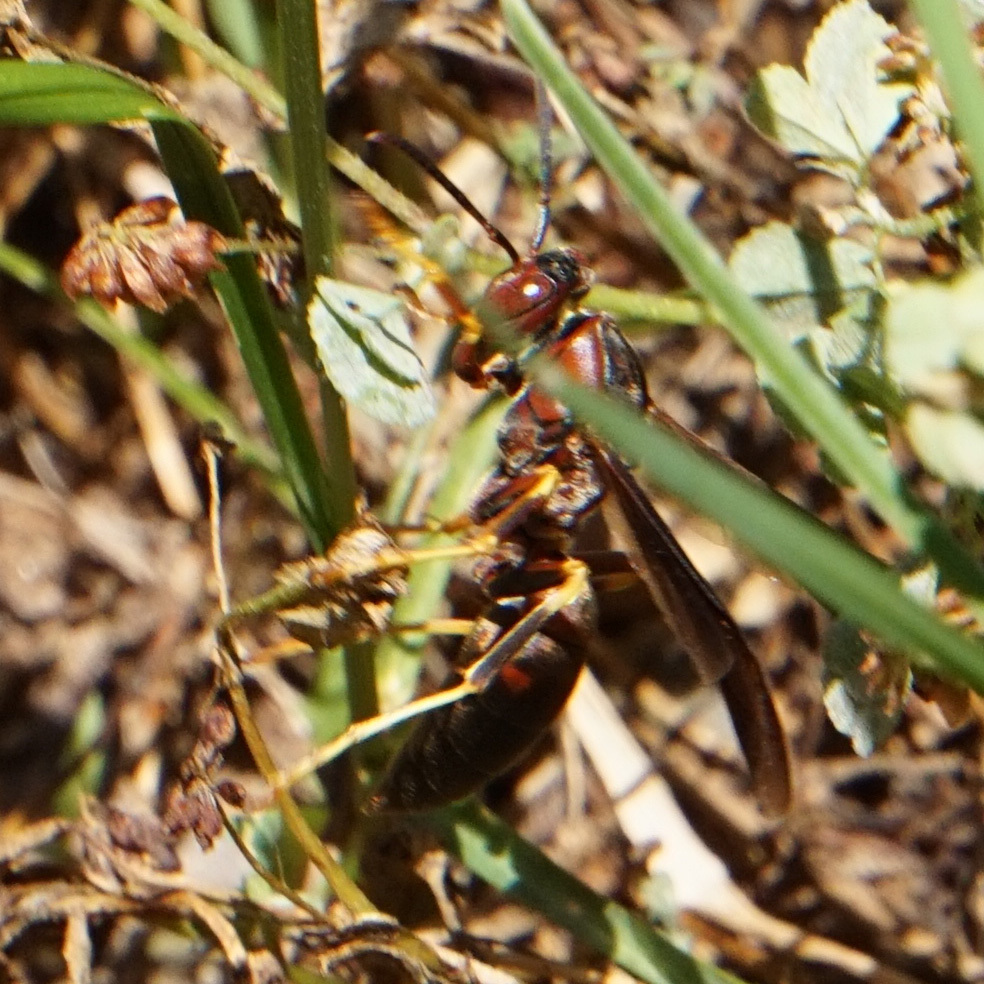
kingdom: Animalia
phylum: Arthropoda
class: Insecta
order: Hymenoptera
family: Eumenidae
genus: Polistes
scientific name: Polistes metricus
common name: Metric paper wasp
